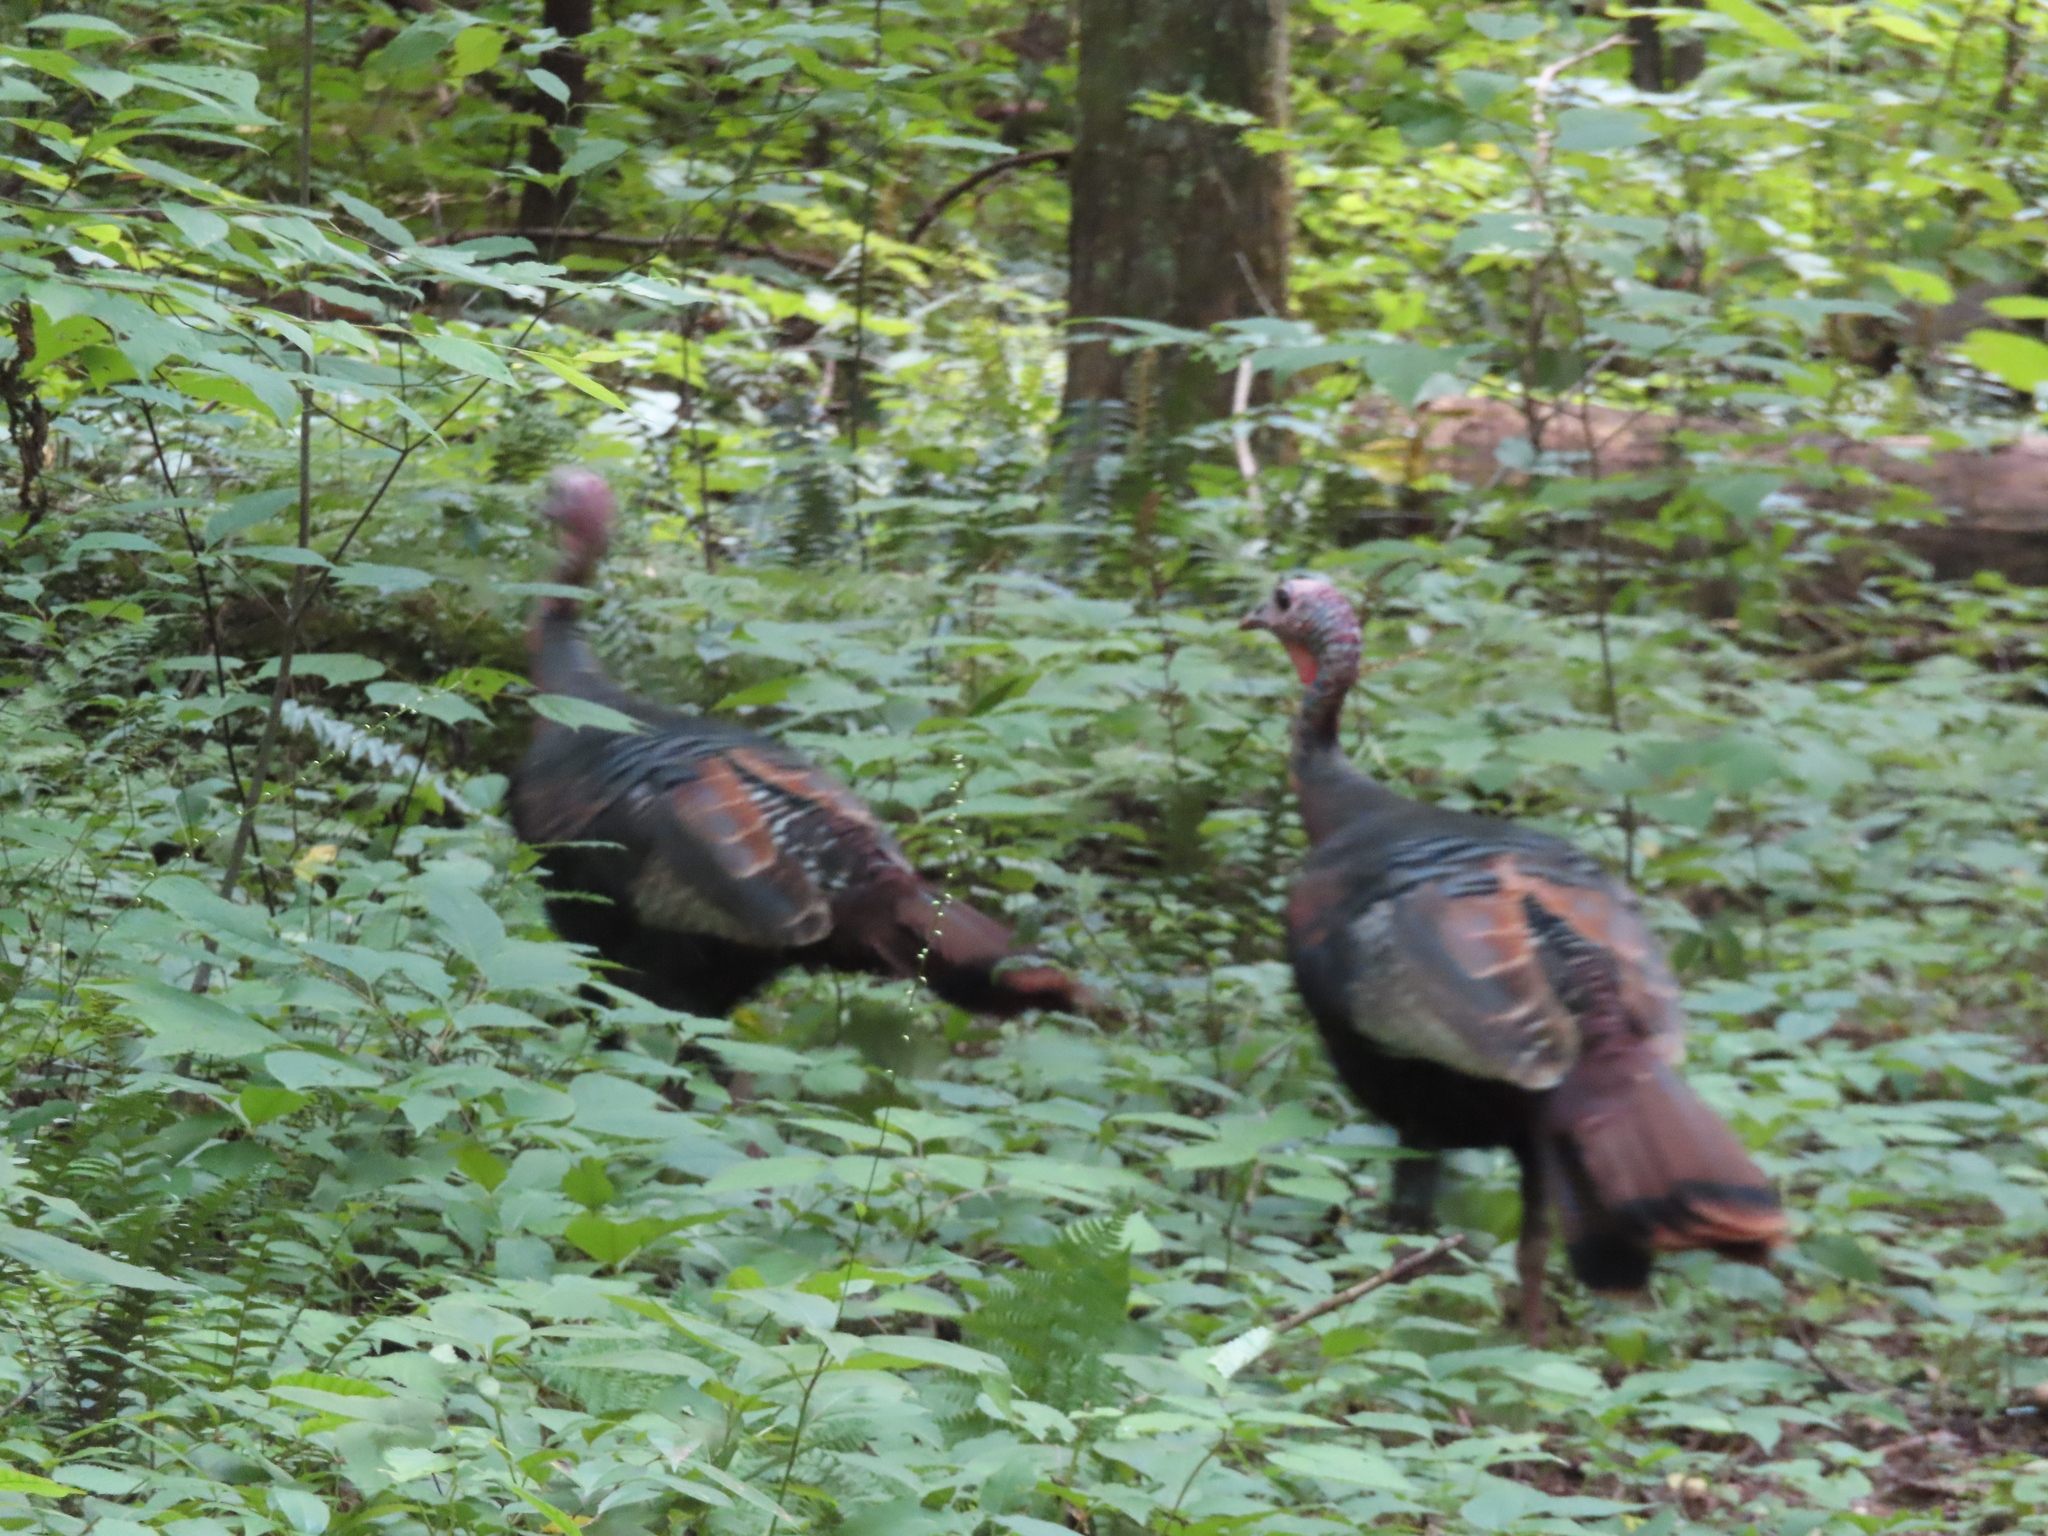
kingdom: Animalia
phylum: Chordata
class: Aves
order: Galliformes
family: Phasianidae
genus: Meleagris
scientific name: Meleagris gallopavo
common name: Wild turkey
